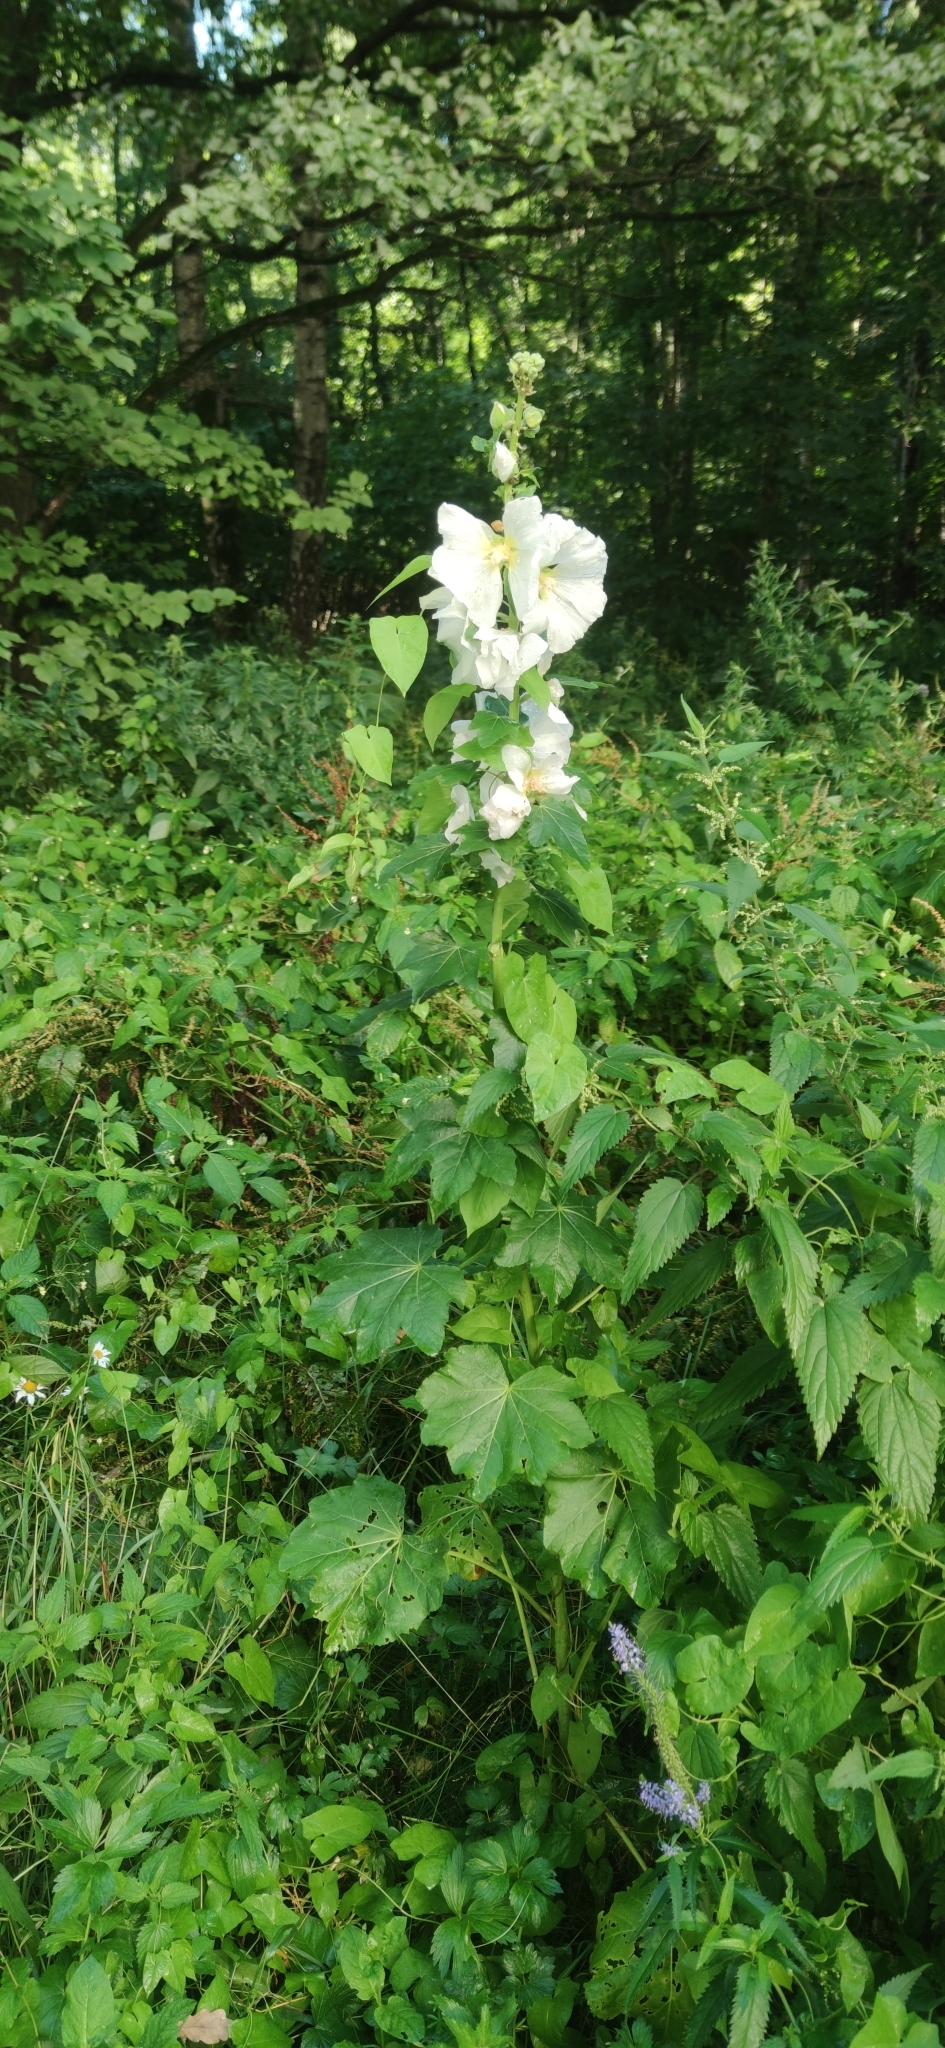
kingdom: Plantae
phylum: Tracheophyta
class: Magnoliopsida
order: Malvales
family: Malvaceae
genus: Alcea
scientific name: Alcea rosea
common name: Hollyhock
